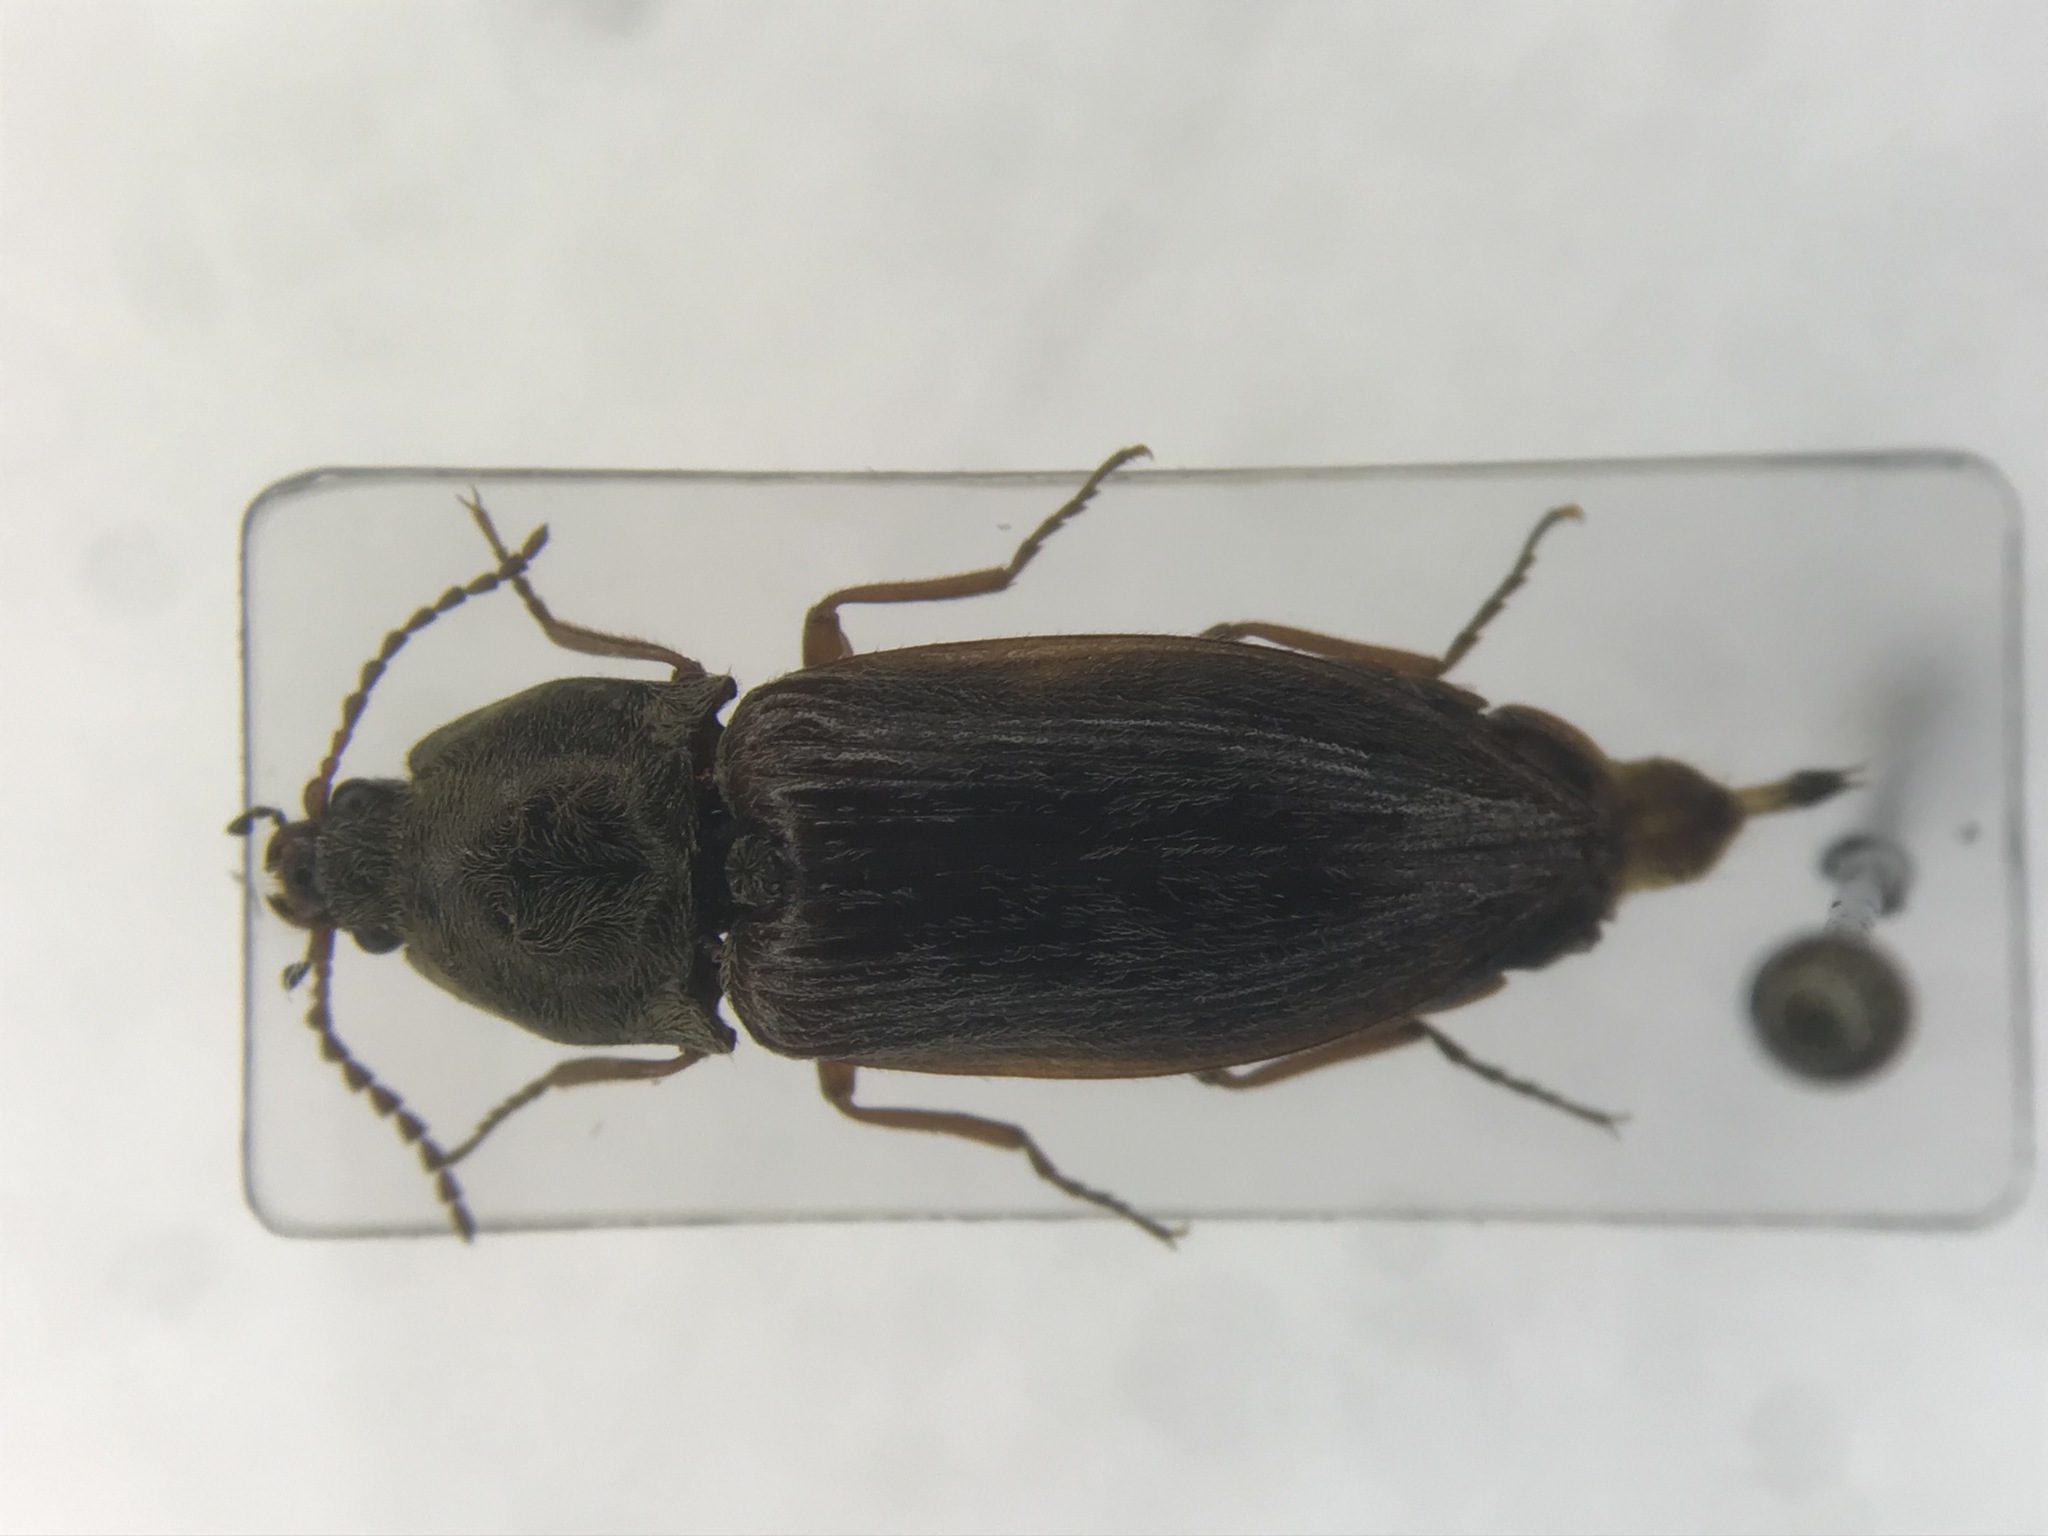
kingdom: Animalia
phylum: Arthropoda
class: Insecta
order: Coleoptera
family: Elateridae
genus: Oxygonus
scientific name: Oxygonus obesus
